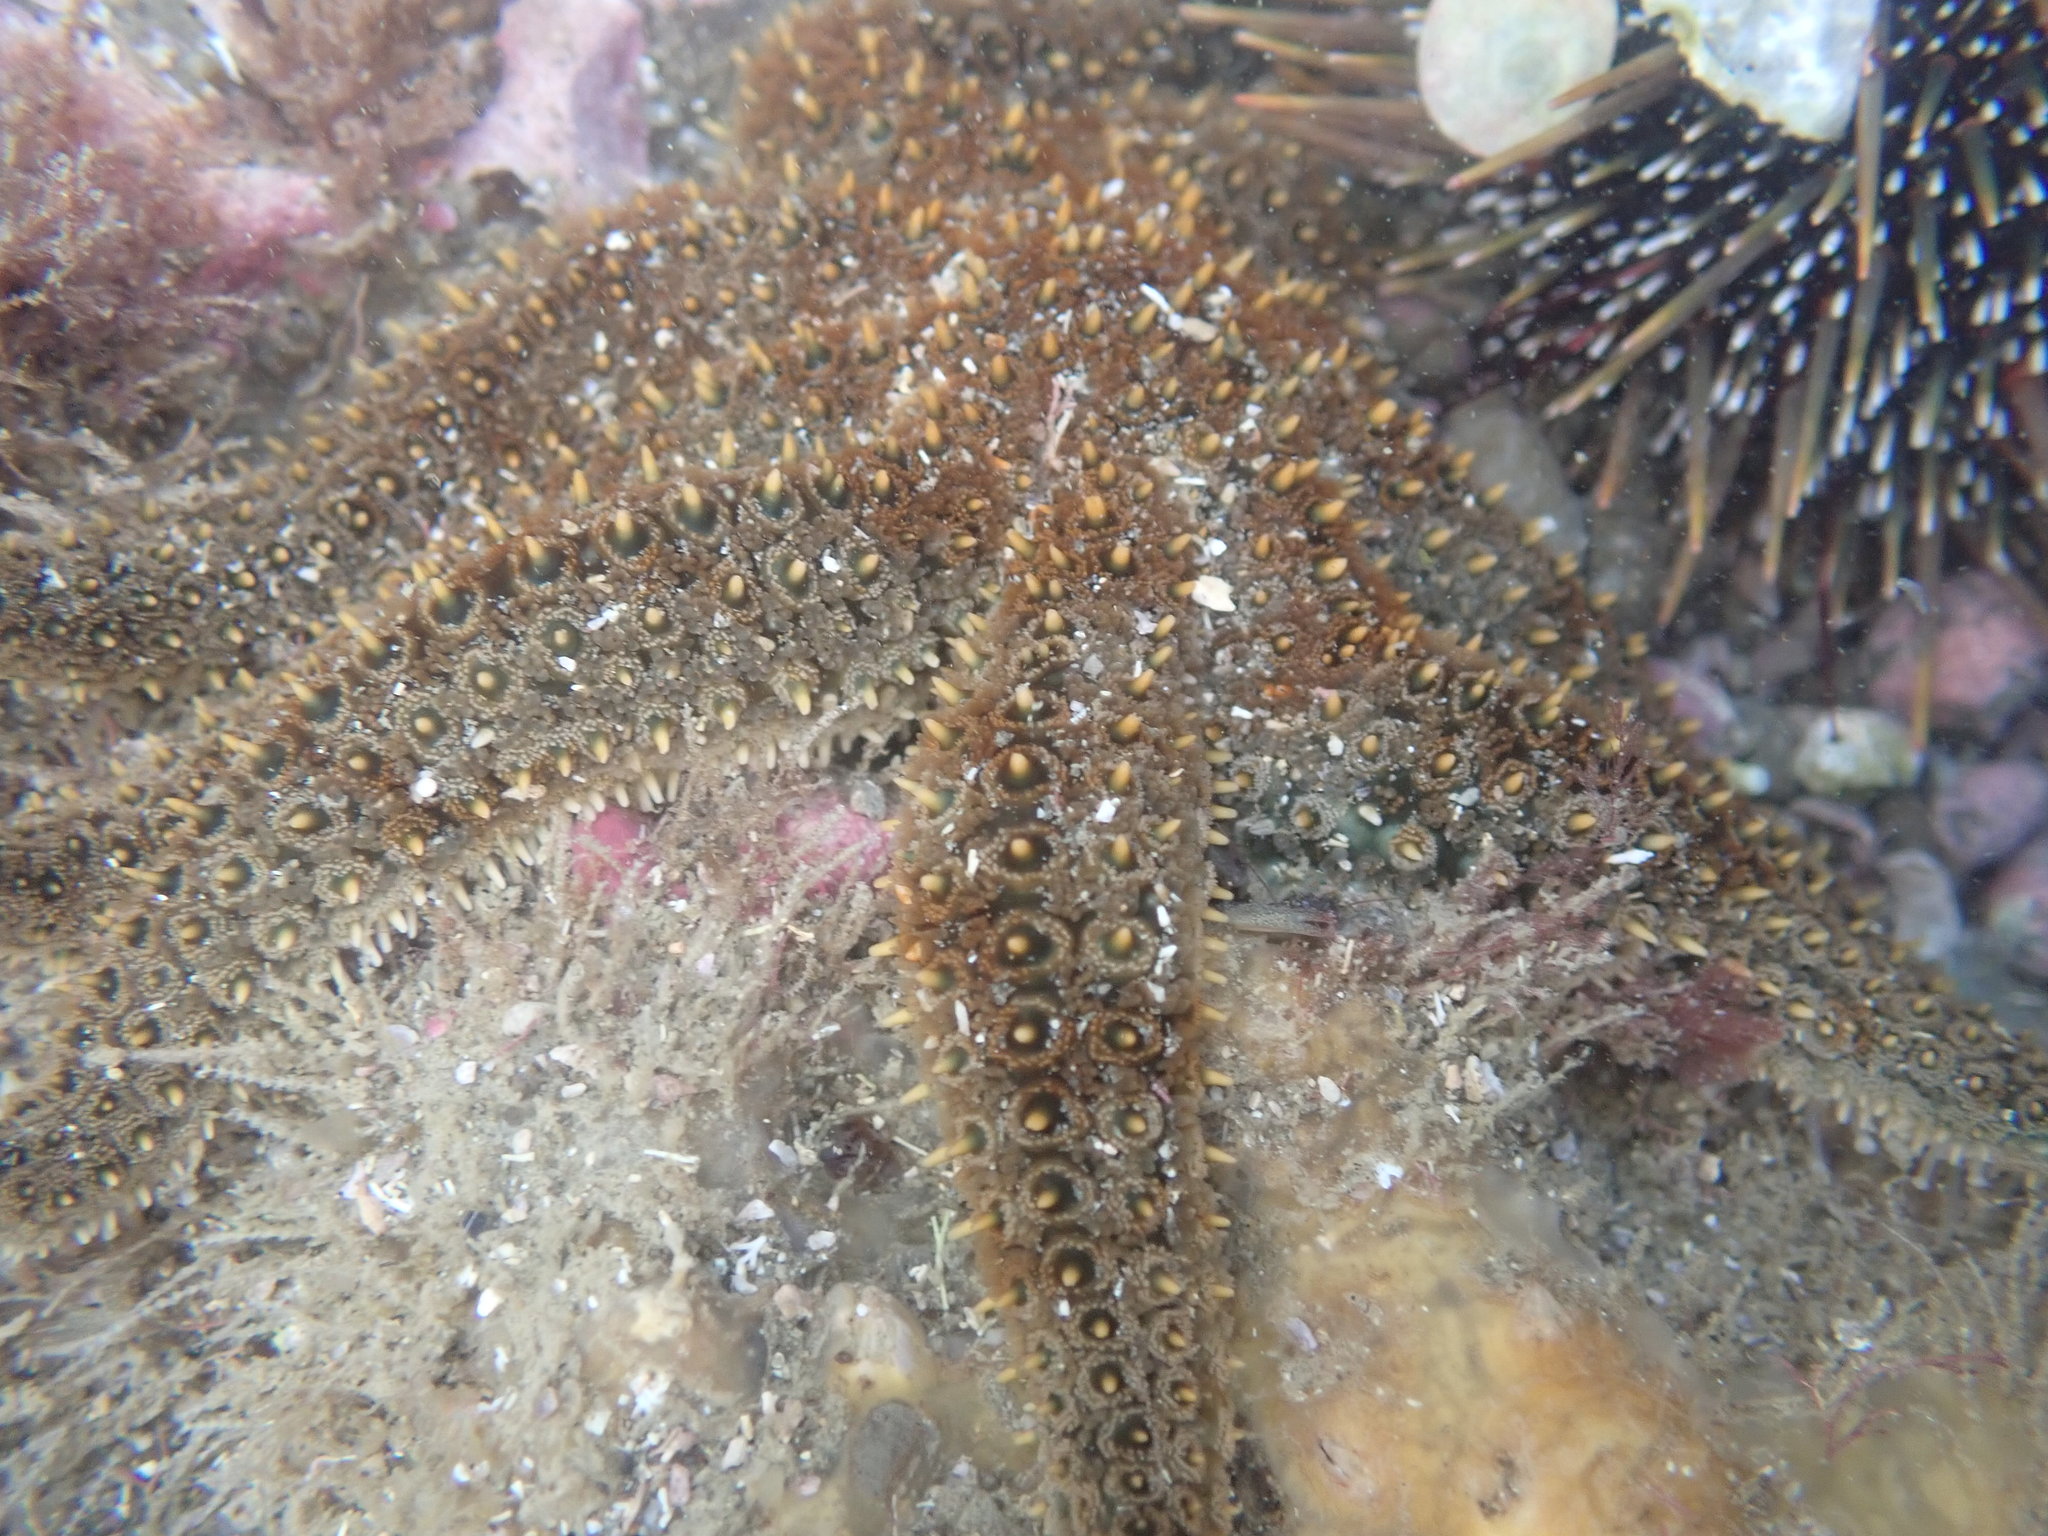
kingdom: Animalia
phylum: Echinodermata
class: Asteroidea
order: Forcipulatida
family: Asteriidae
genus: Coscinasterias
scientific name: Coscinasterias muricata
